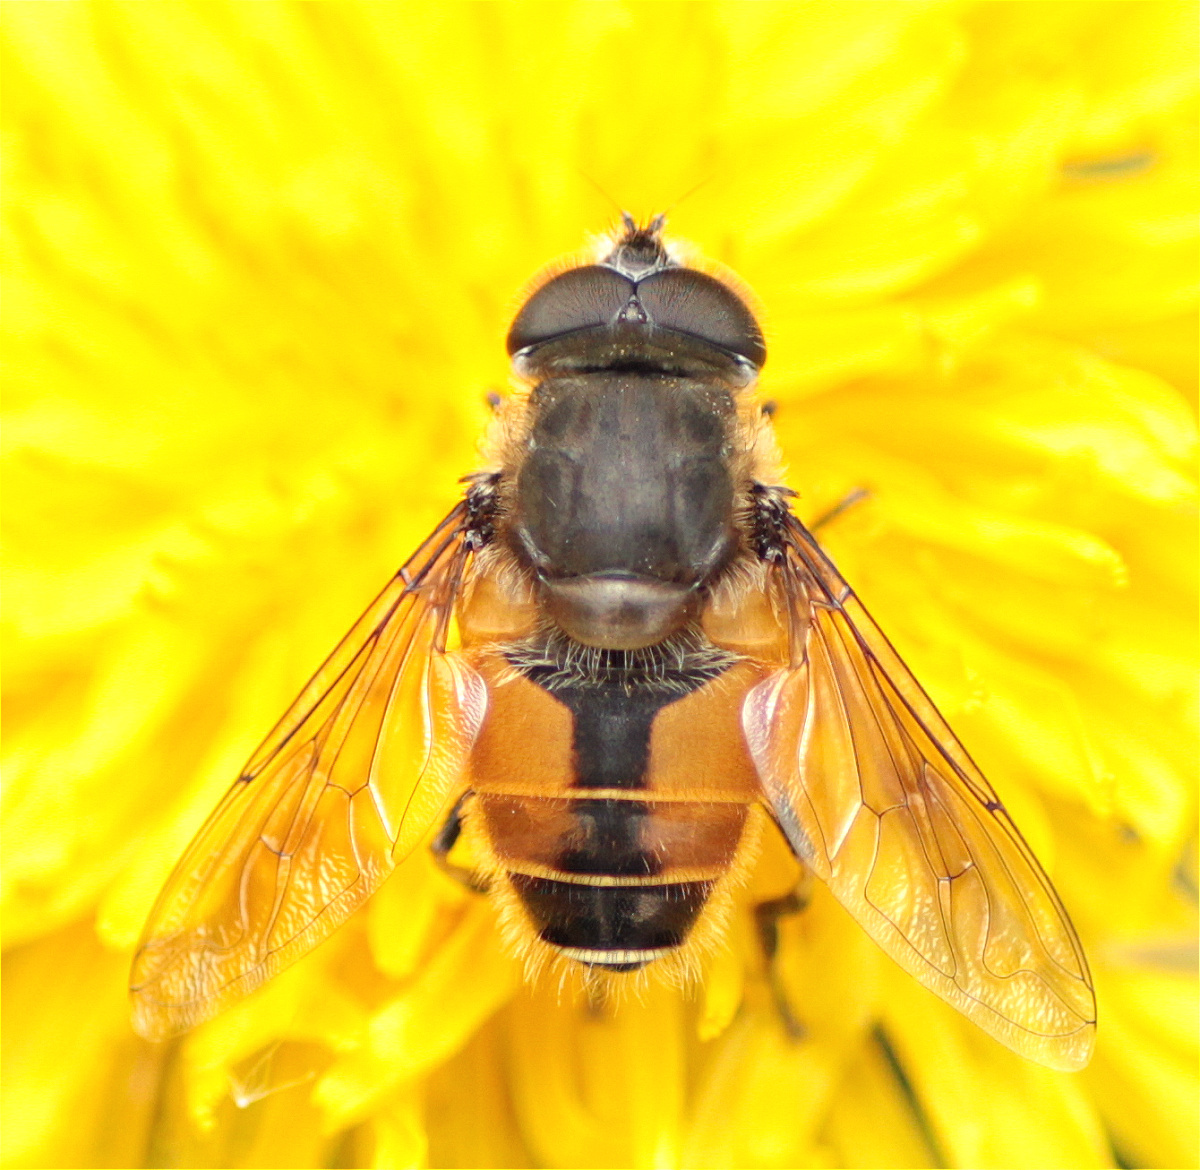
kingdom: Animalia
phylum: Arthropoda
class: Insecta
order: Diptera
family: Syrphidae
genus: Eristalis
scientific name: Eristalis bogotensis
